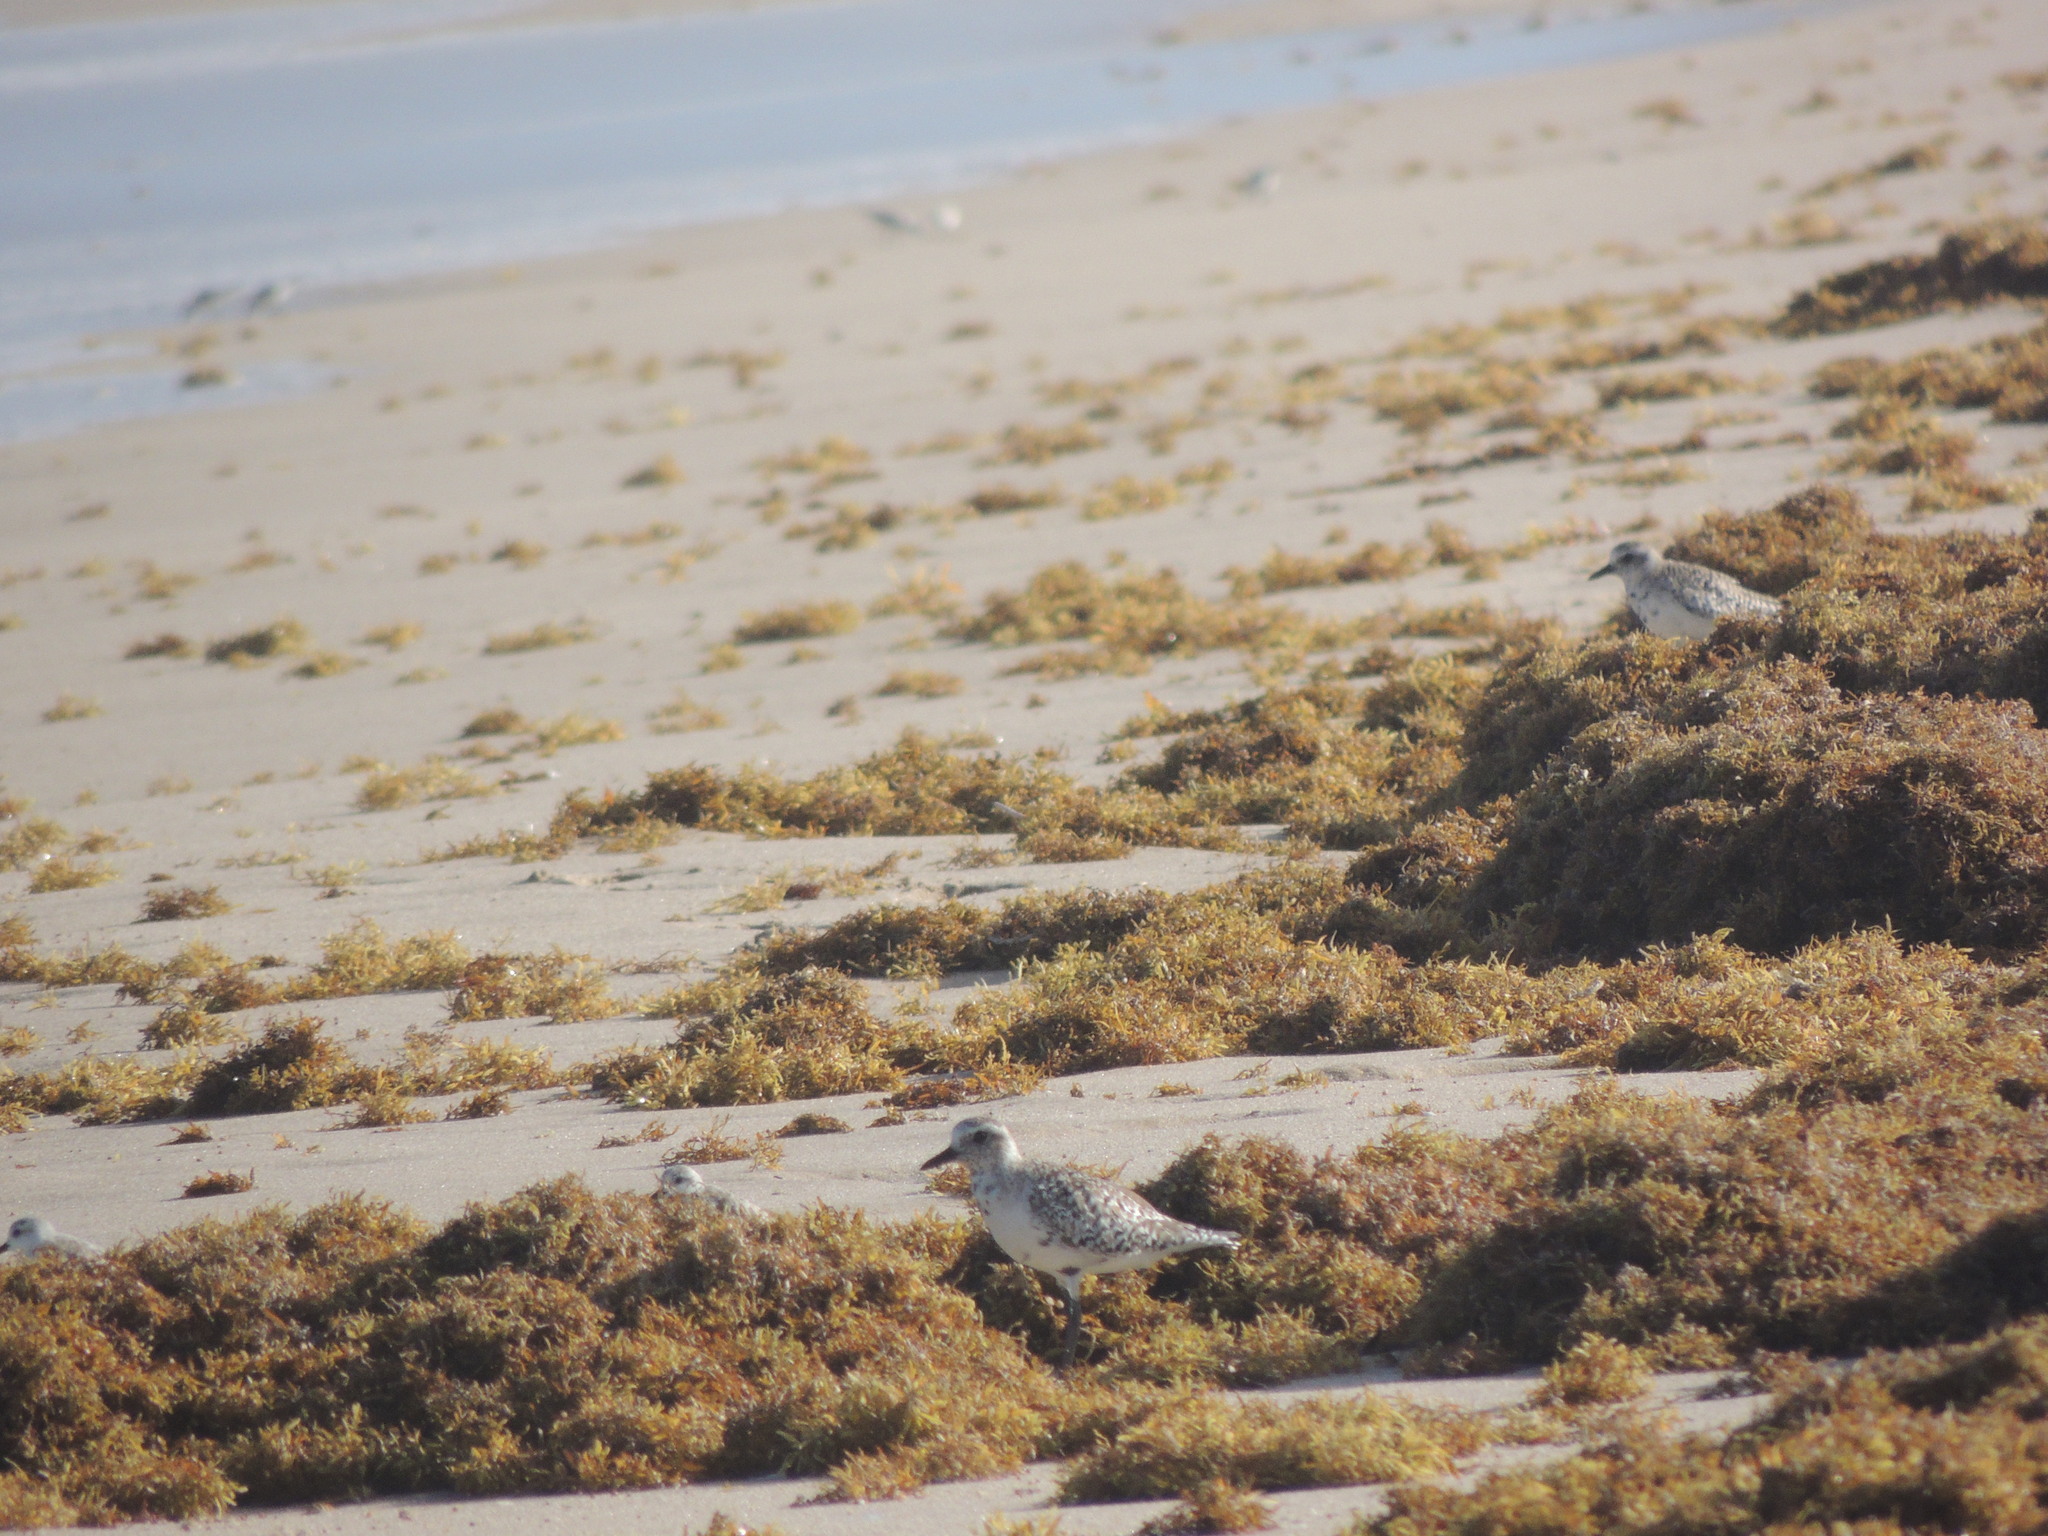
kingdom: Animalia
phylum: Chordata
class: Aves
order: Charadriiformes
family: Charadriidae
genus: Pluvialis
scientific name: Pluvialis squatarola
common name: Grey plover
